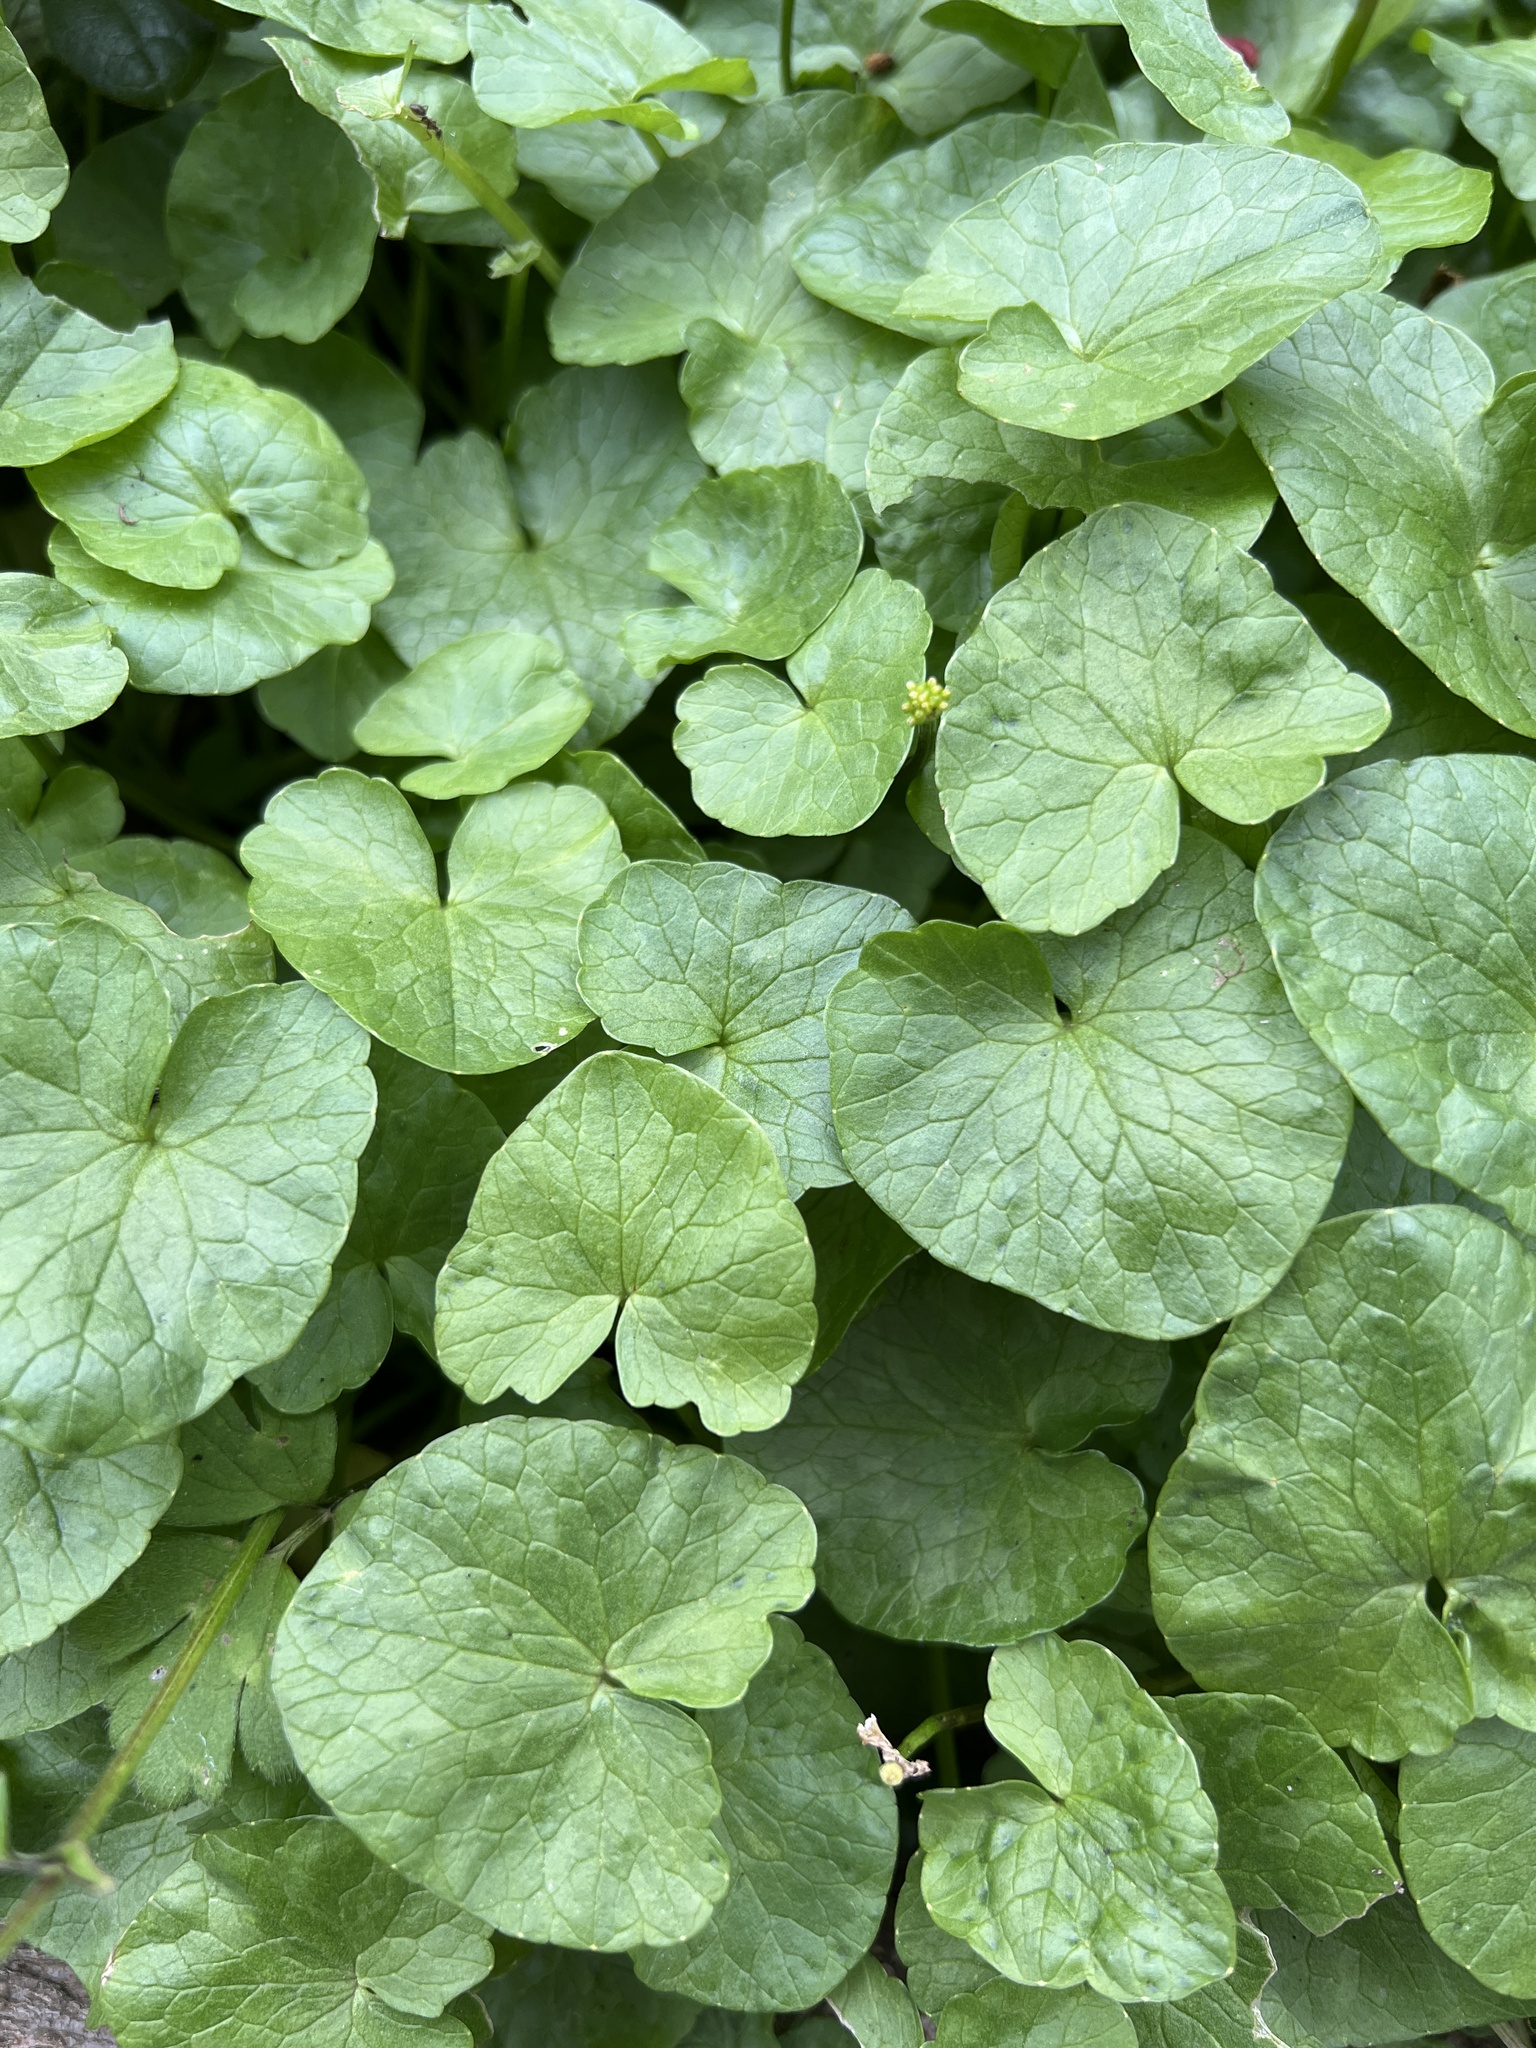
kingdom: Plantae
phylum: Tracheophyta
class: Magnoliopsida
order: Ranunculales
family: Ranunculaceae
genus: Ficaria
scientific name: Ficaria verna
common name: Lesser celandine
